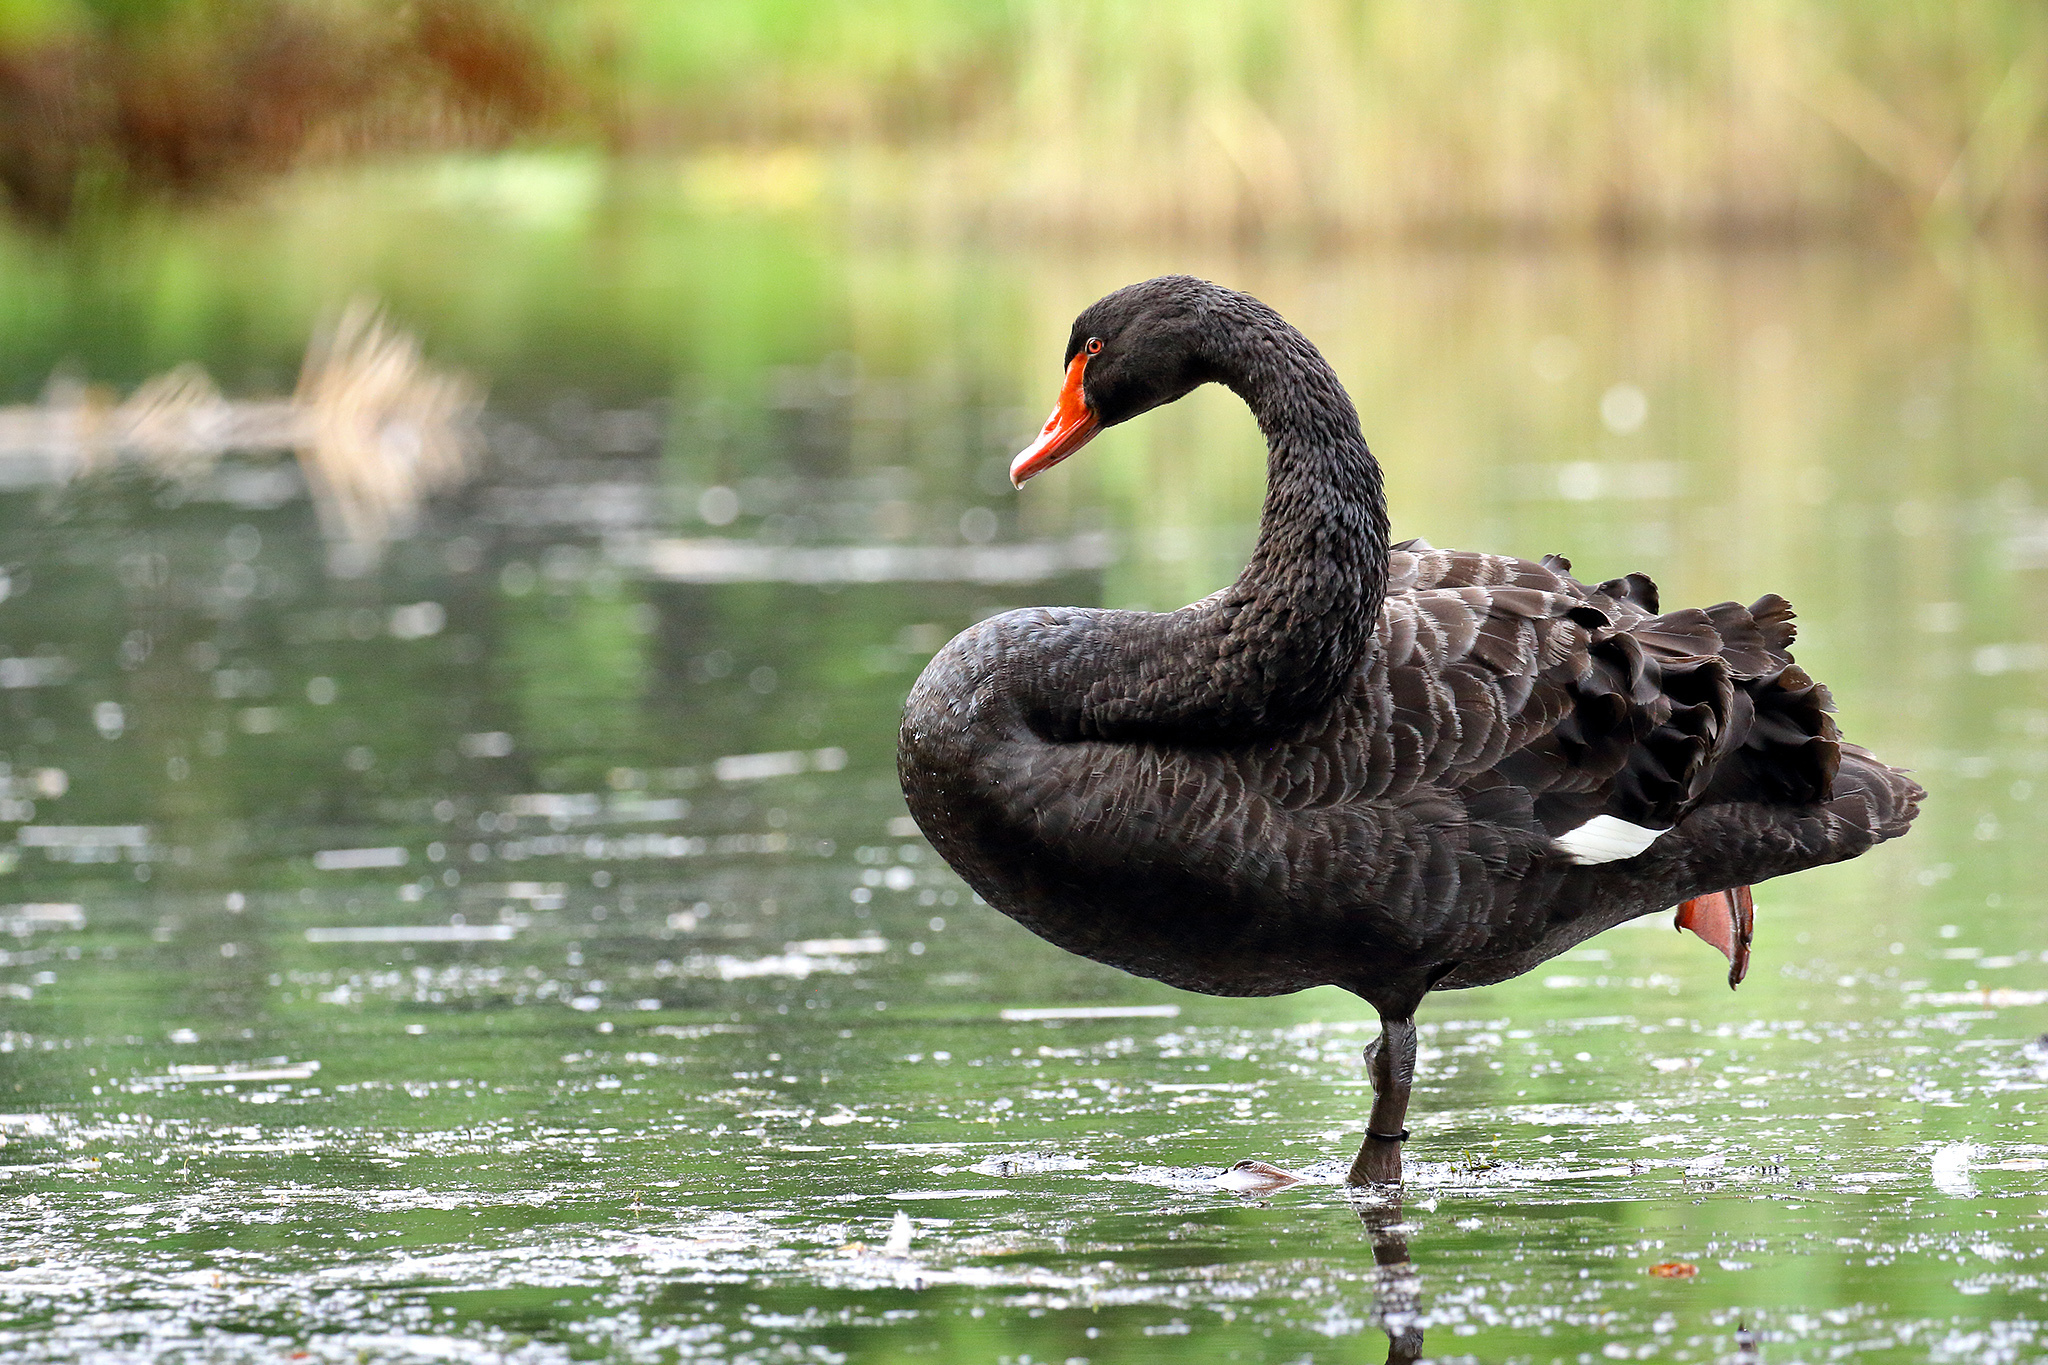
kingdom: Animalia
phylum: Chordata
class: Aves
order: Anseriformes
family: Anatidae
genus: Cygnus
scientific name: Cygnus atratus
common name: Black swan
